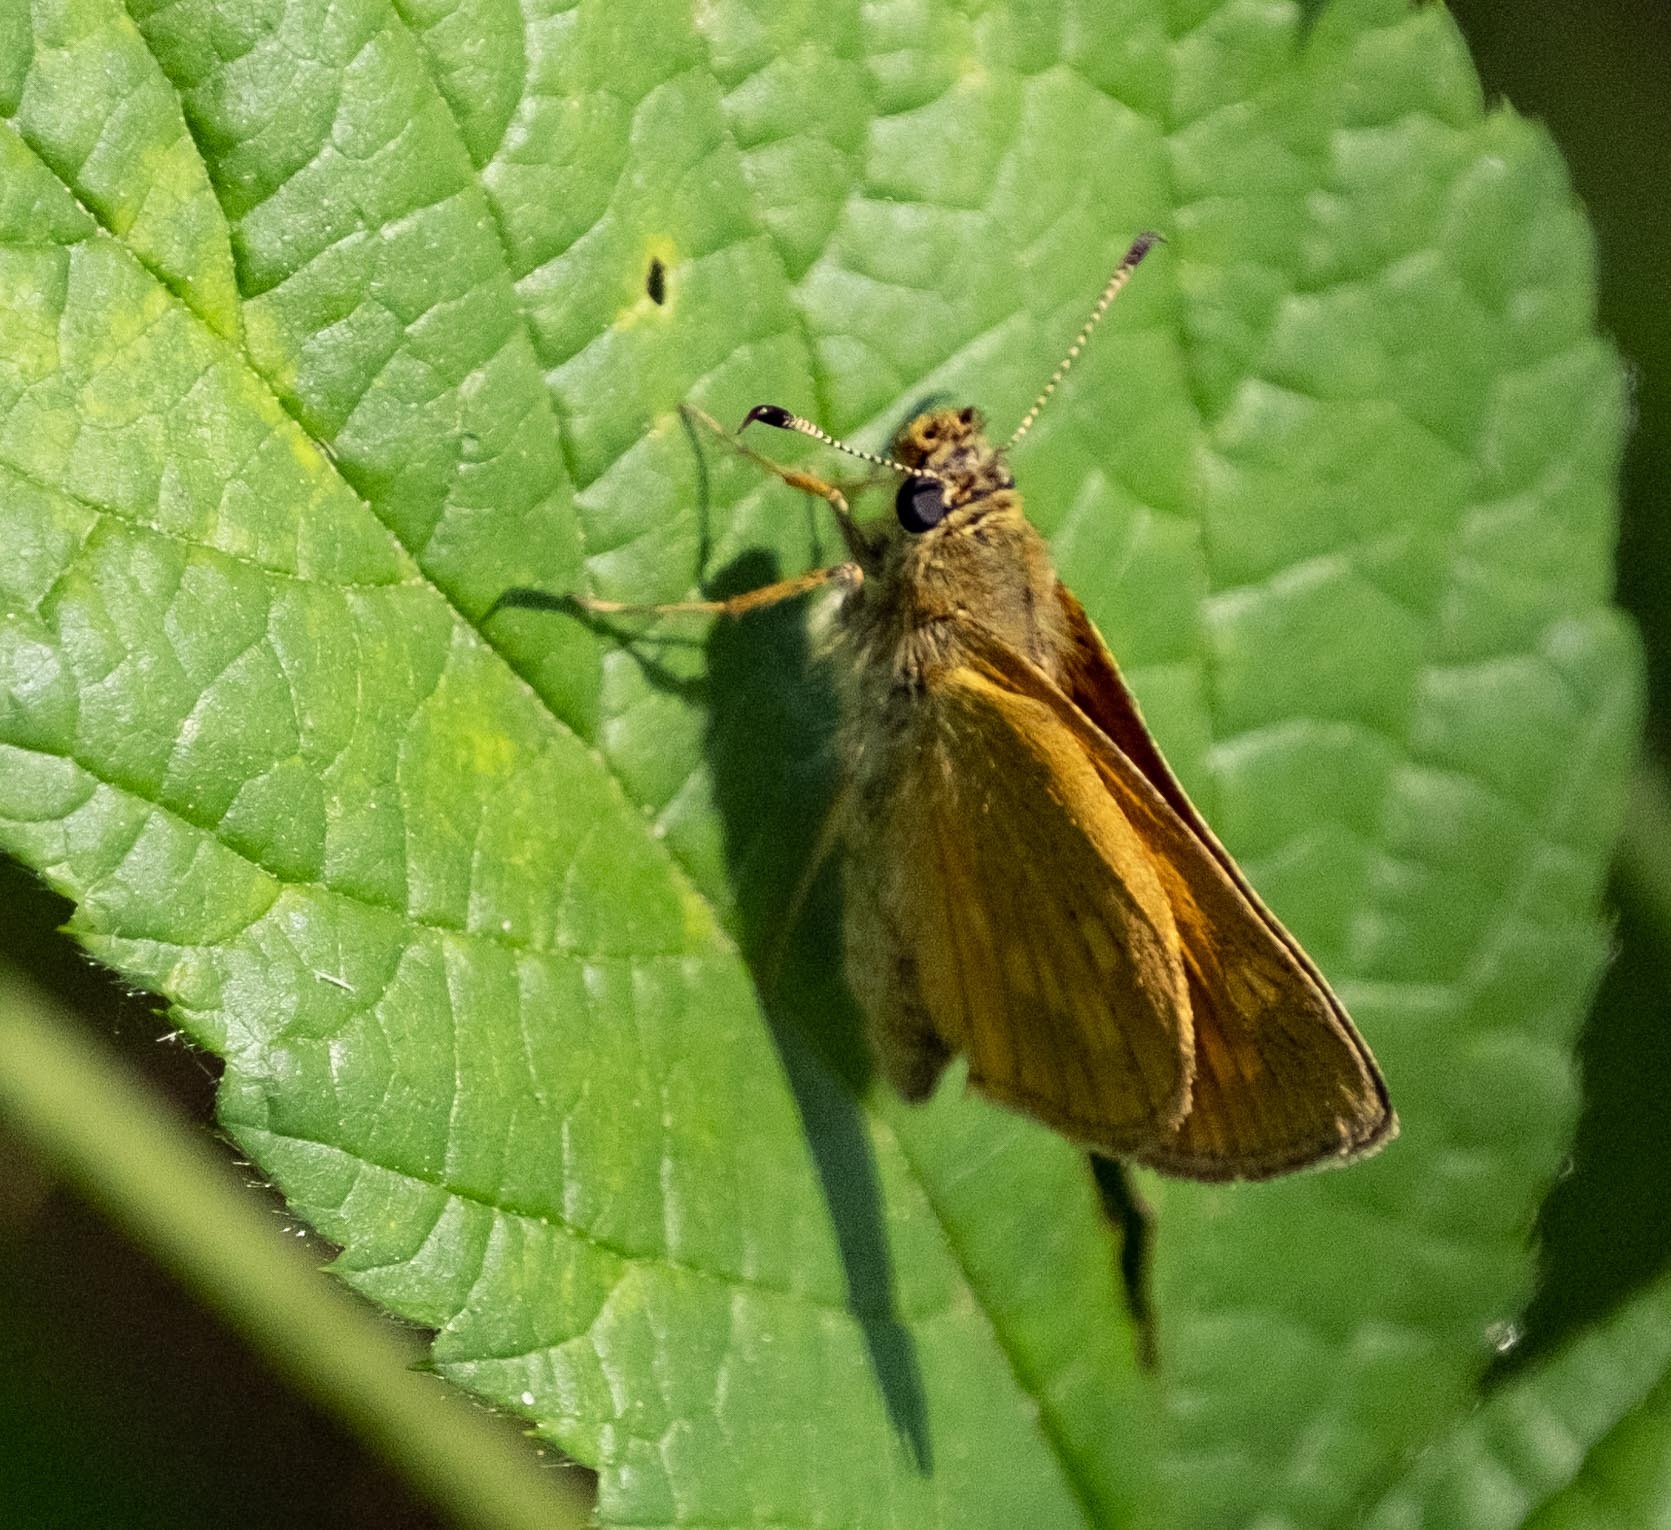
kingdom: Animalia
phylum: Arthropoda
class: Insecta
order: Lepidoptera
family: Hesperiidae
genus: Ochlodes
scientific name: Ochlodes venata
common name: Large skipper
